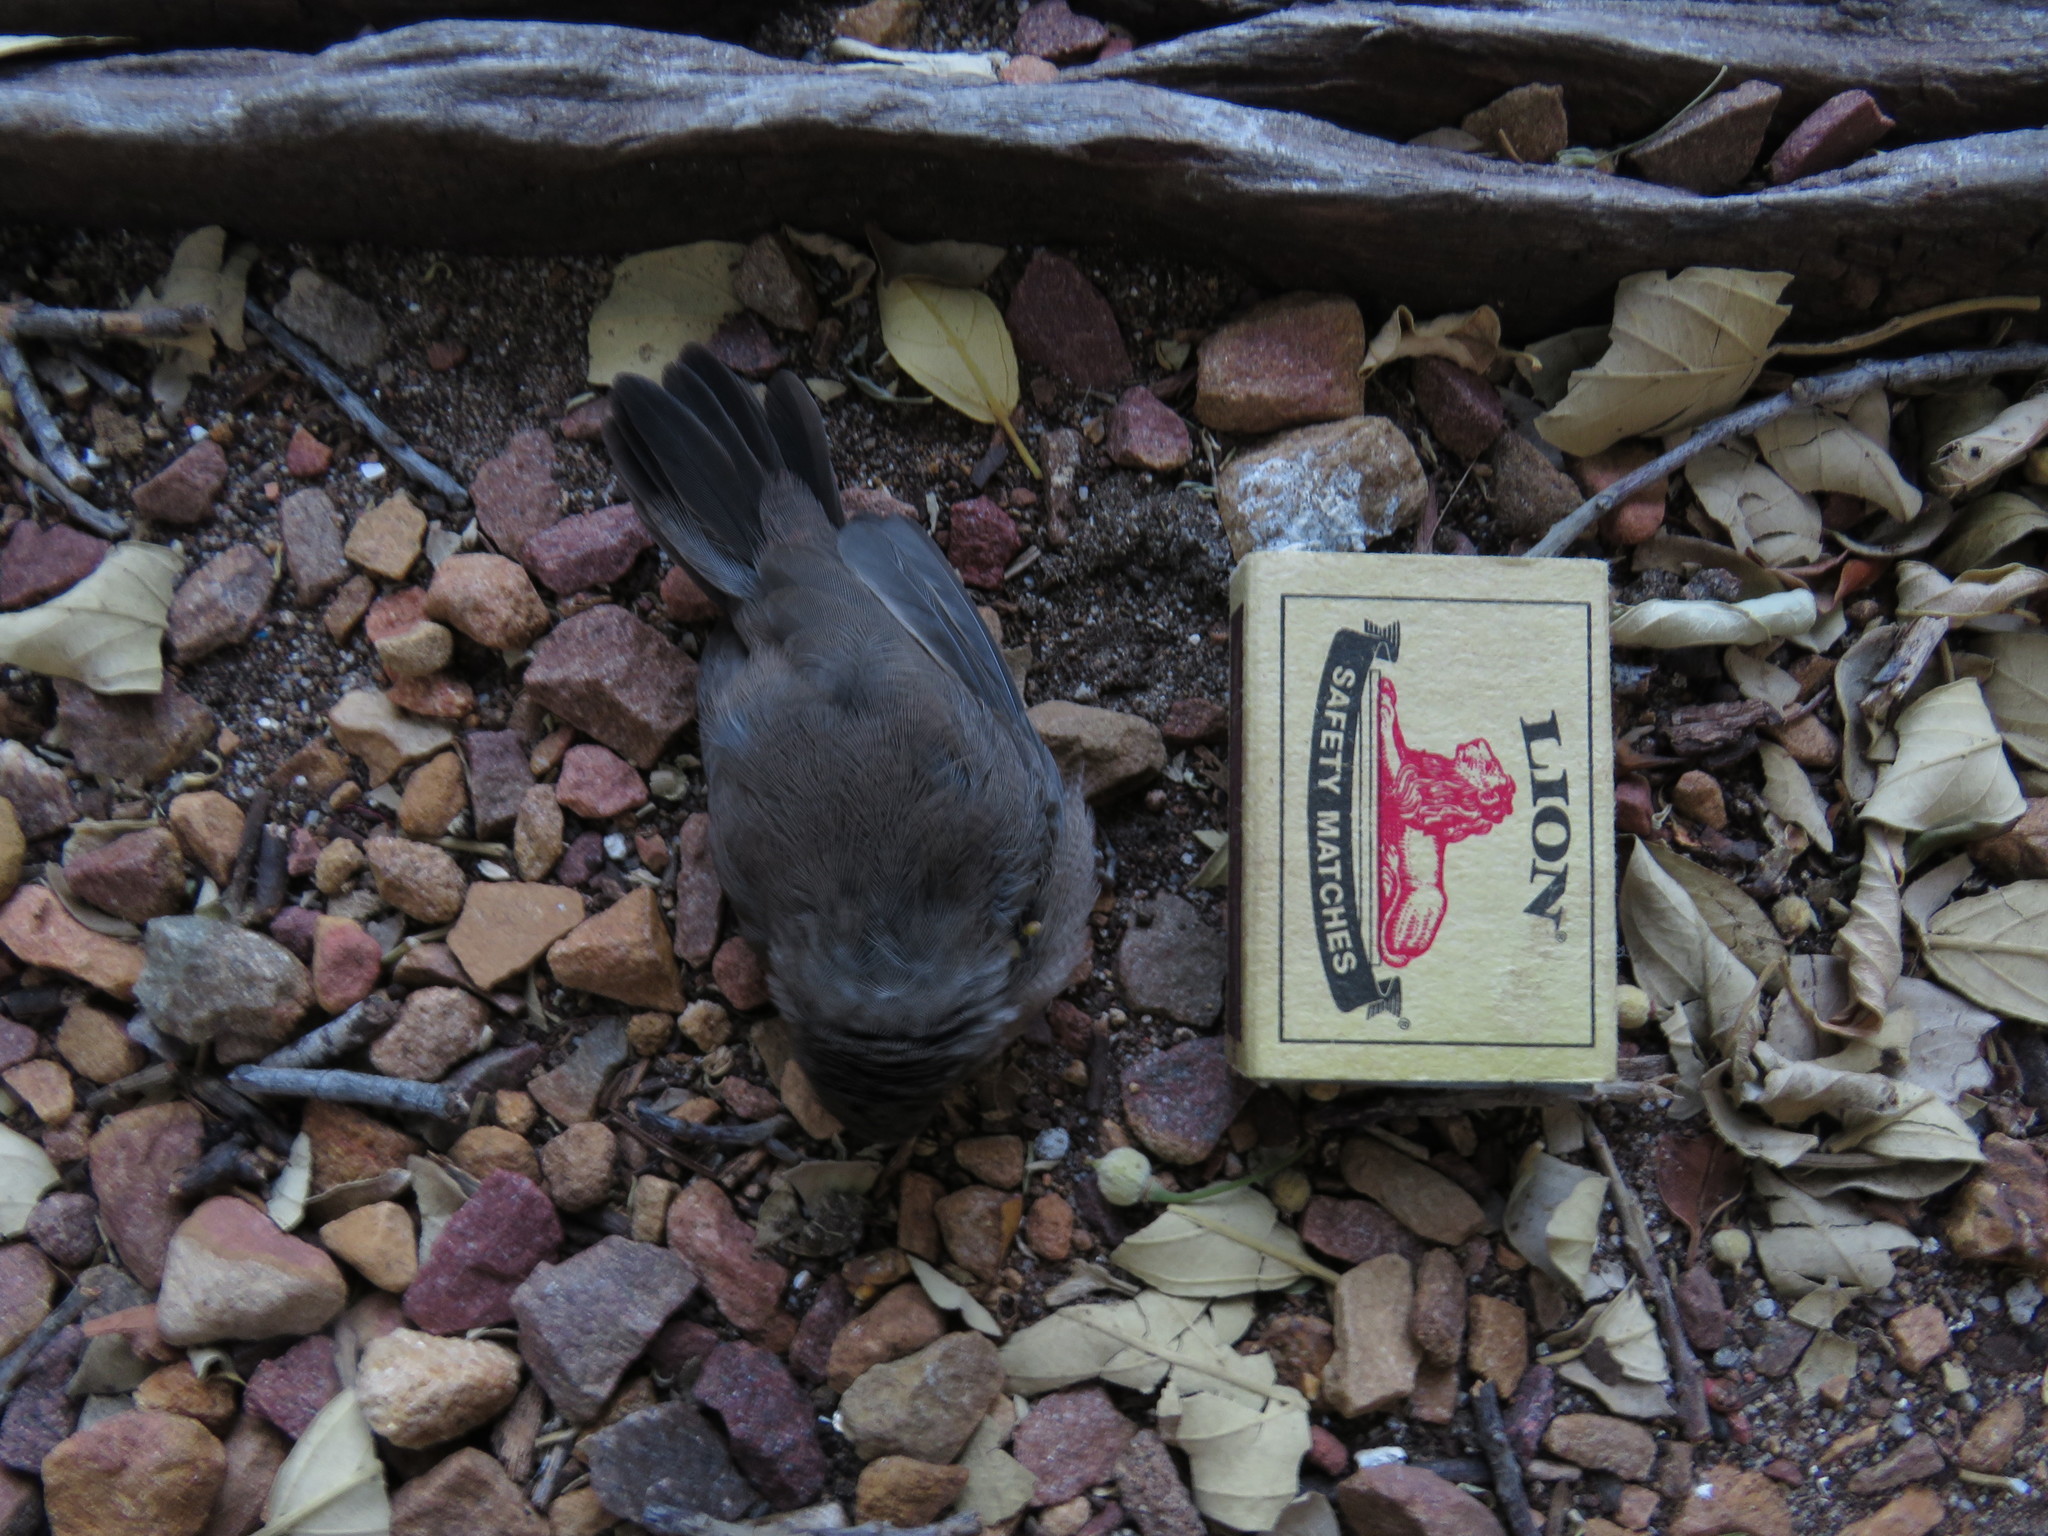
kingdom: Animalia
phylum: Chordata
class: Aves
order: Passeriformes
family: Estrildidae
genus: Estrilda
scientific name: Estrilda astrild
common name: Common waxbill
